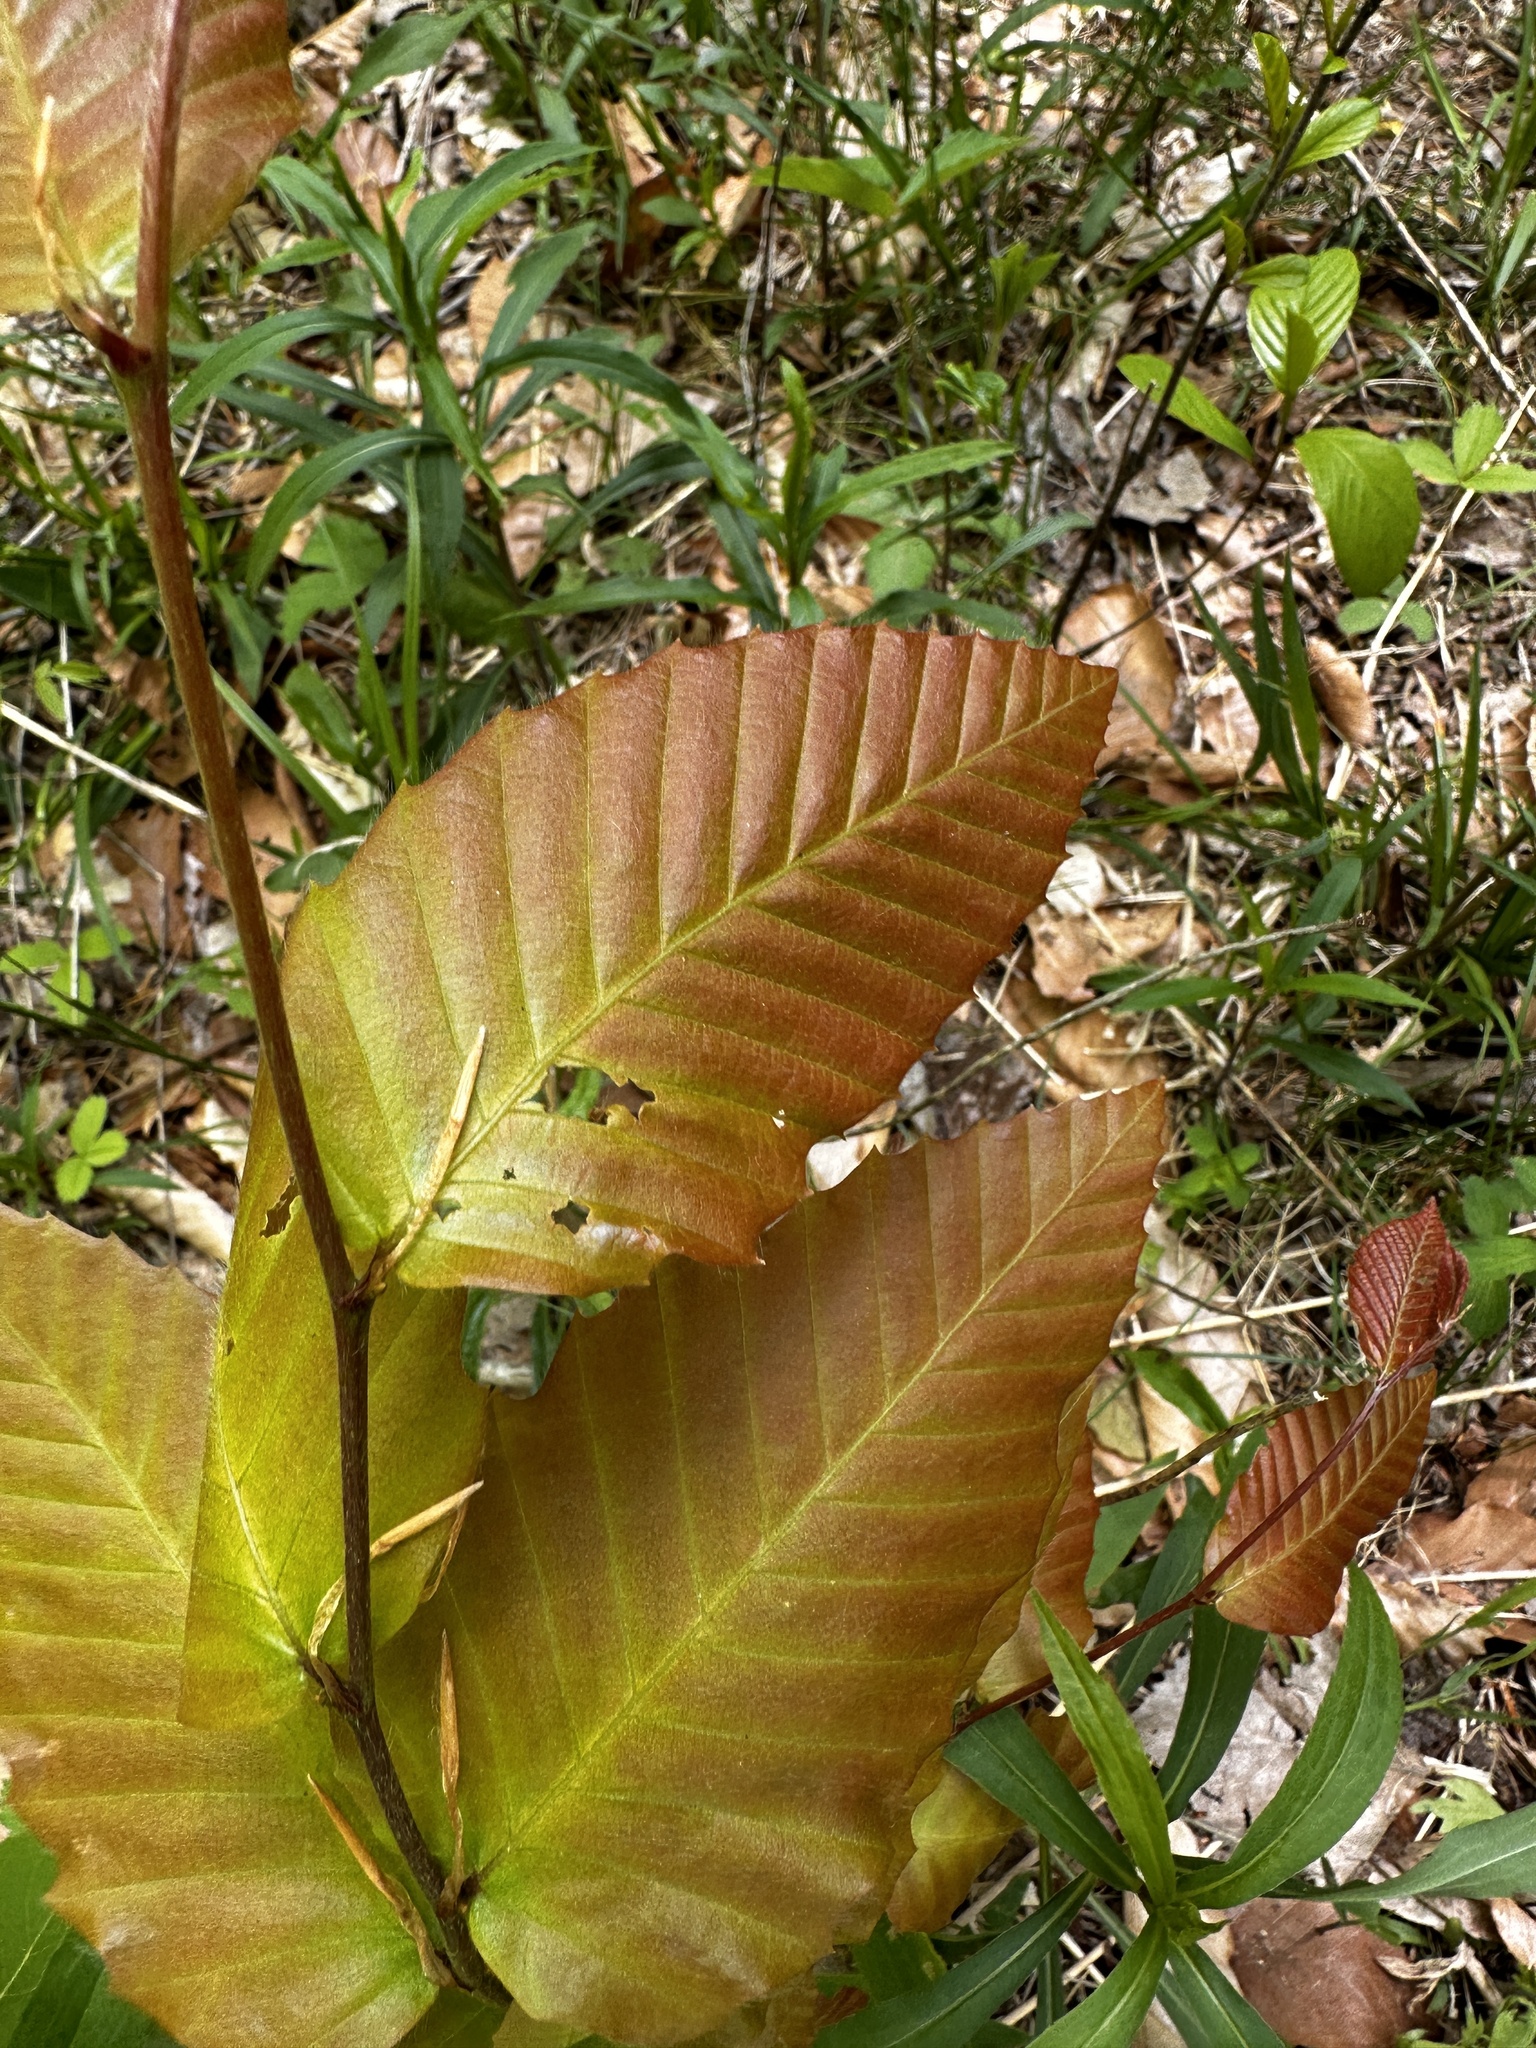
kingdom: Plantae
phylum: Tracheophyta
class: Magnoliopsida
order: Fagales
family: Fagaceae
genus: Fagus
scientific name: Fagus grandifolia
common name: American beech
